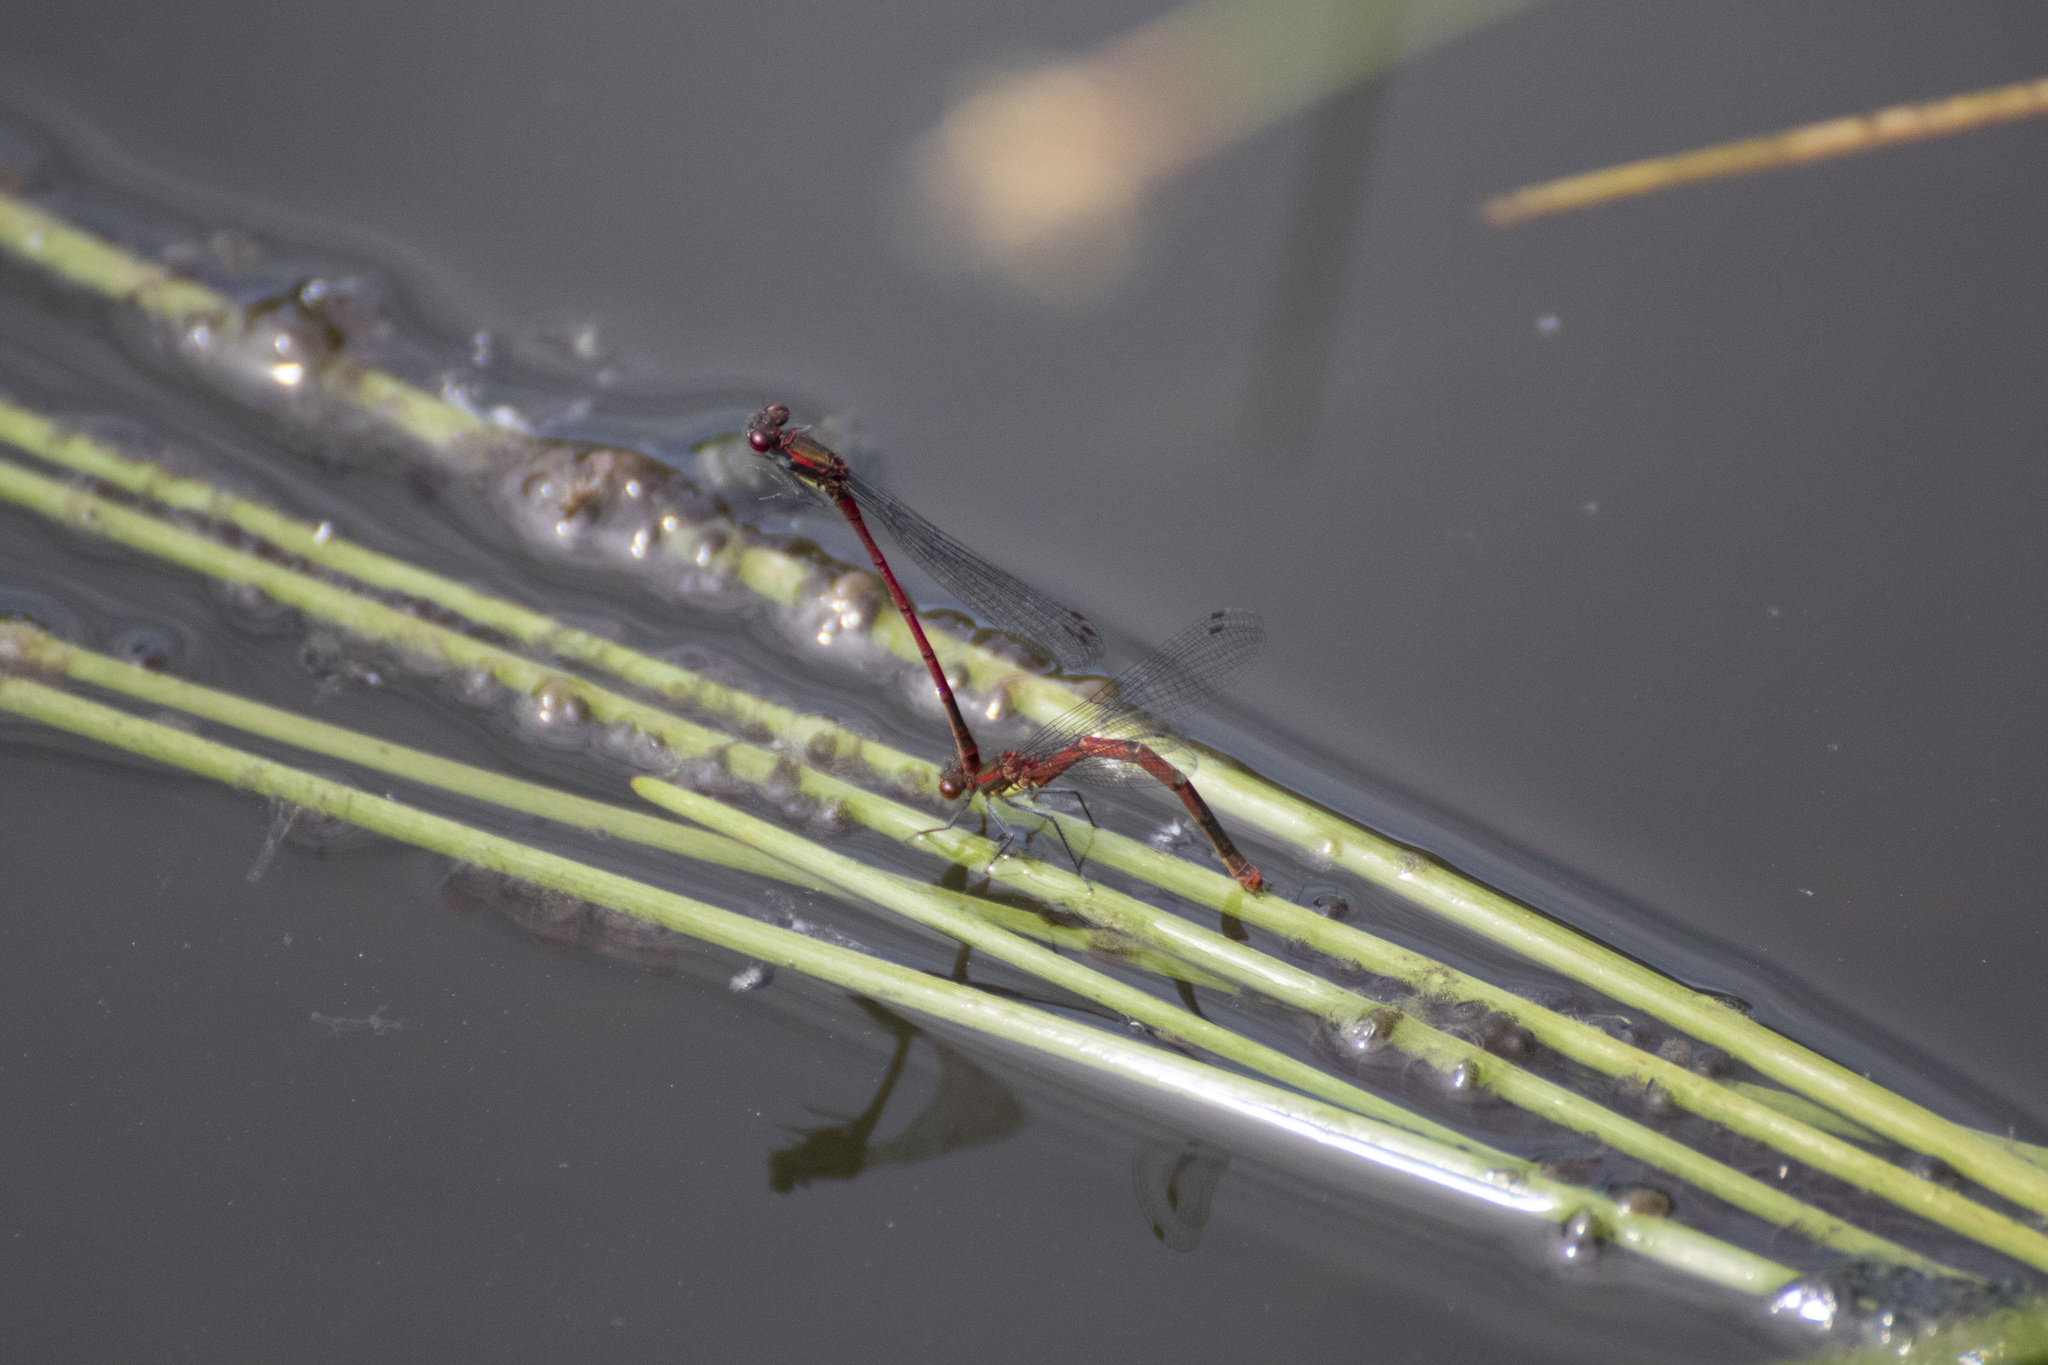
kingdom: Animalia
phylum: Arthropoda
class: Insecta
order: Odonata
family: Coenagrionidae
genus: Pyrrhosoma
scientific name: Pyrrhosoma nymphula
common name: Large red damsel
